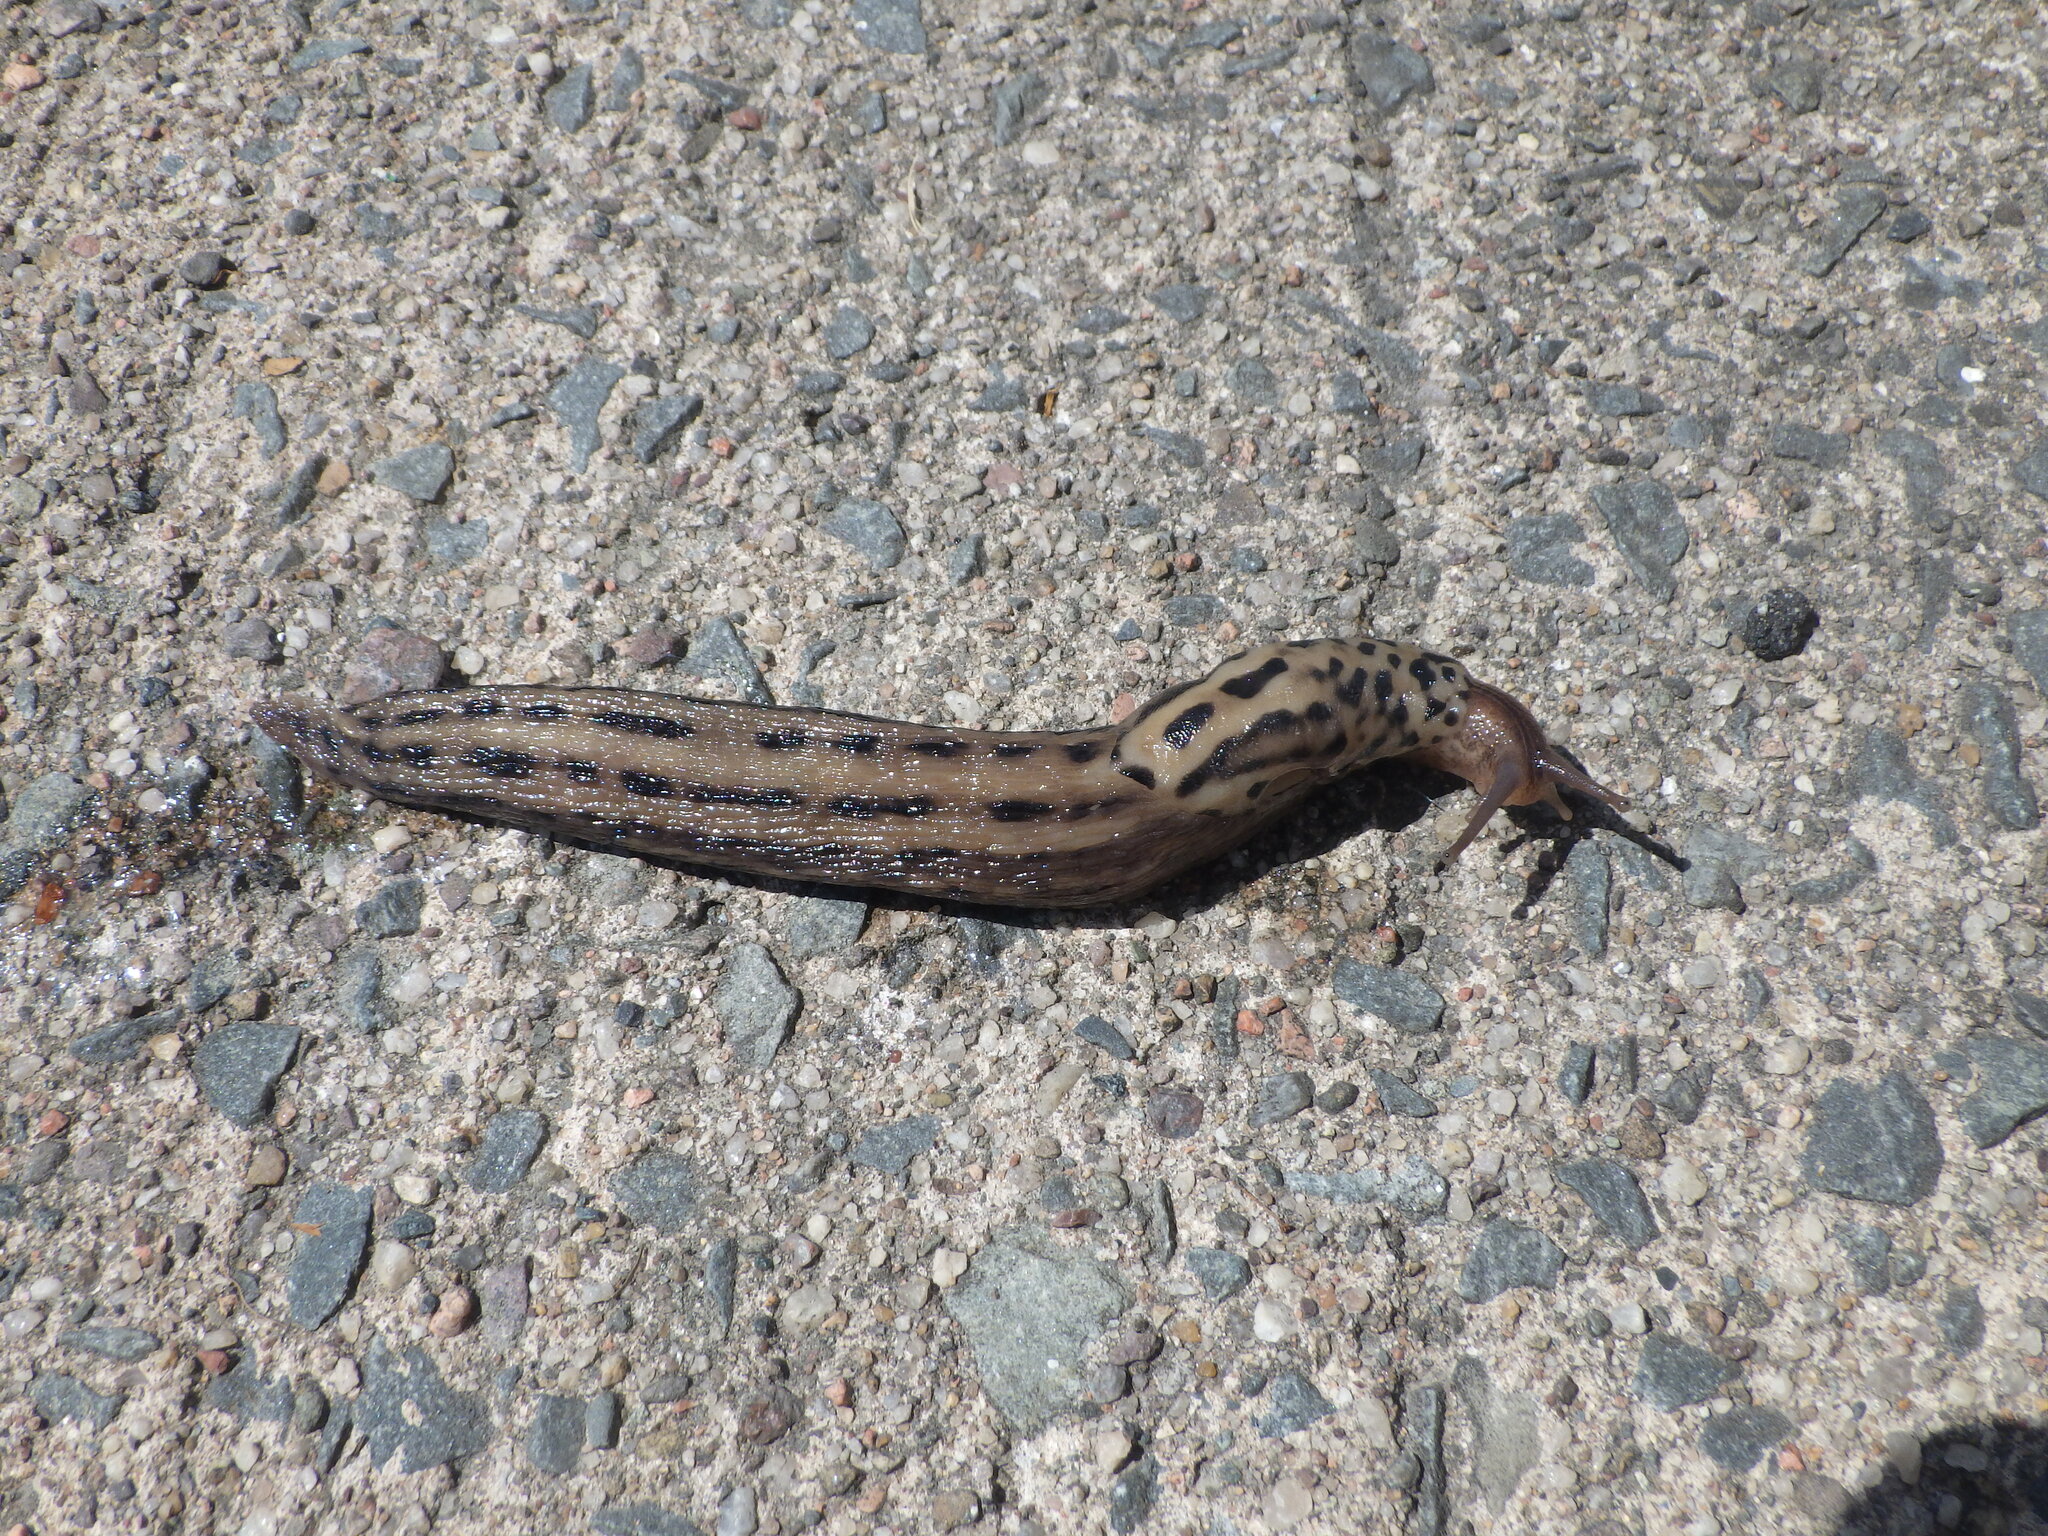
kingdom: Animalia
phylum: Mollusca
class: Gastropoda
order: Stylommatophora
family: Limacidae
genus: Limax
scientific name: Limax maximus
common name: Great grey slug
